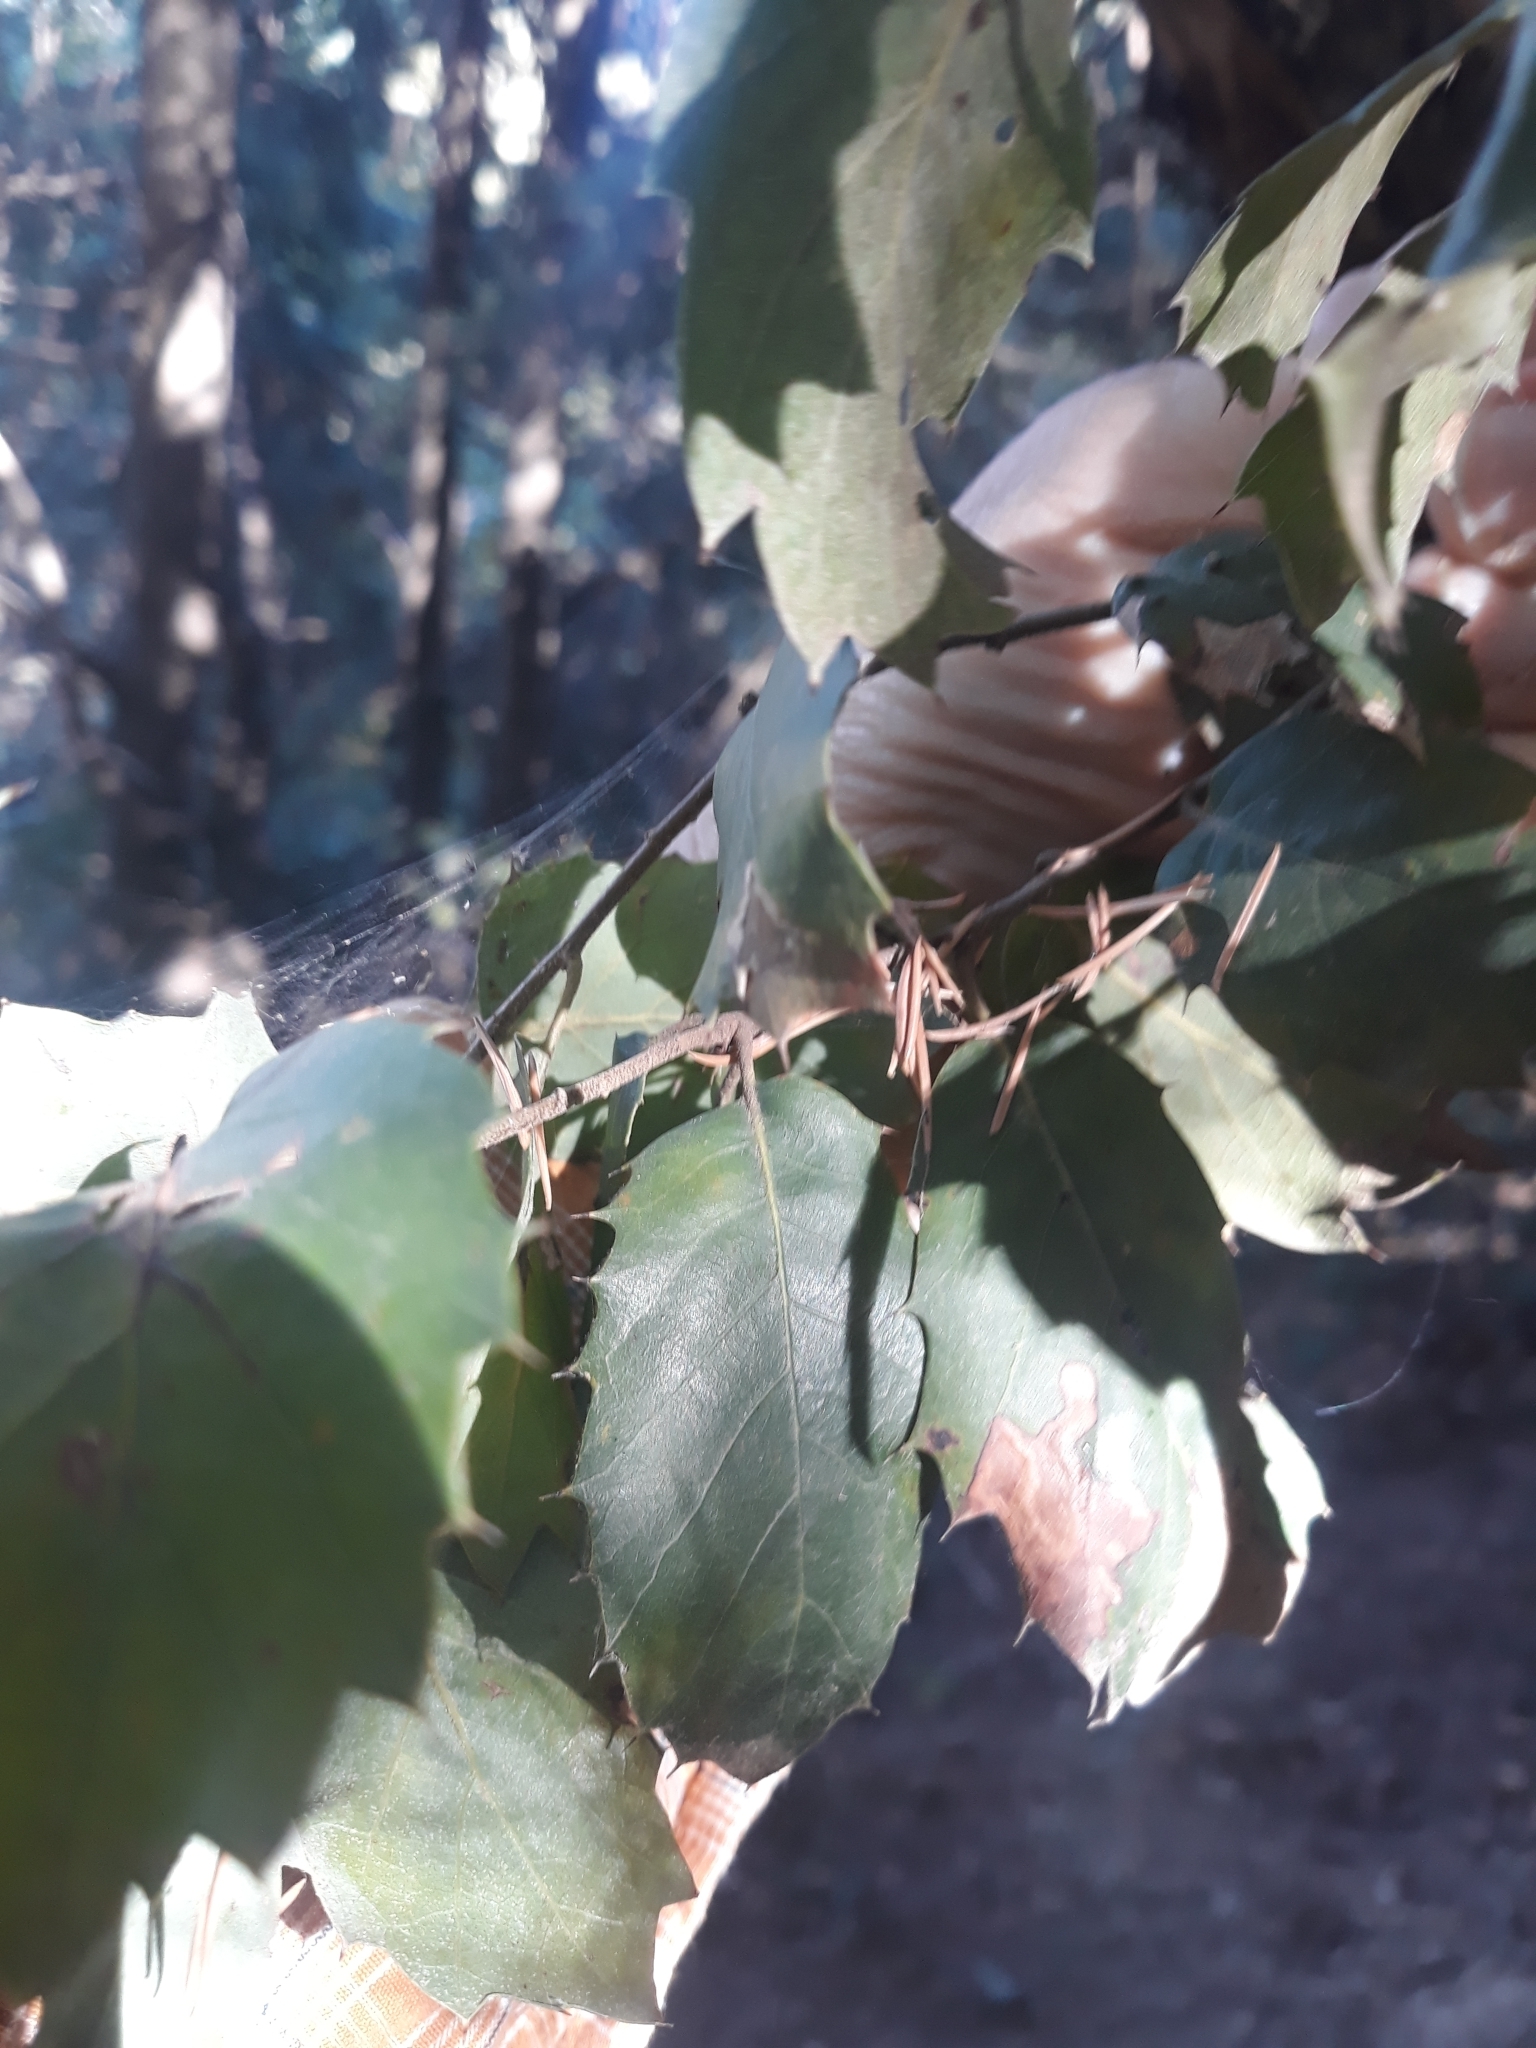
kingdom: Plantae
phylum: Tracheophyta
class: Magnoliopsida
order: Fagales
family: Fagaceae
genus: Quercus
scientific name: Quercus rotundifolia
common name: Holm oak
